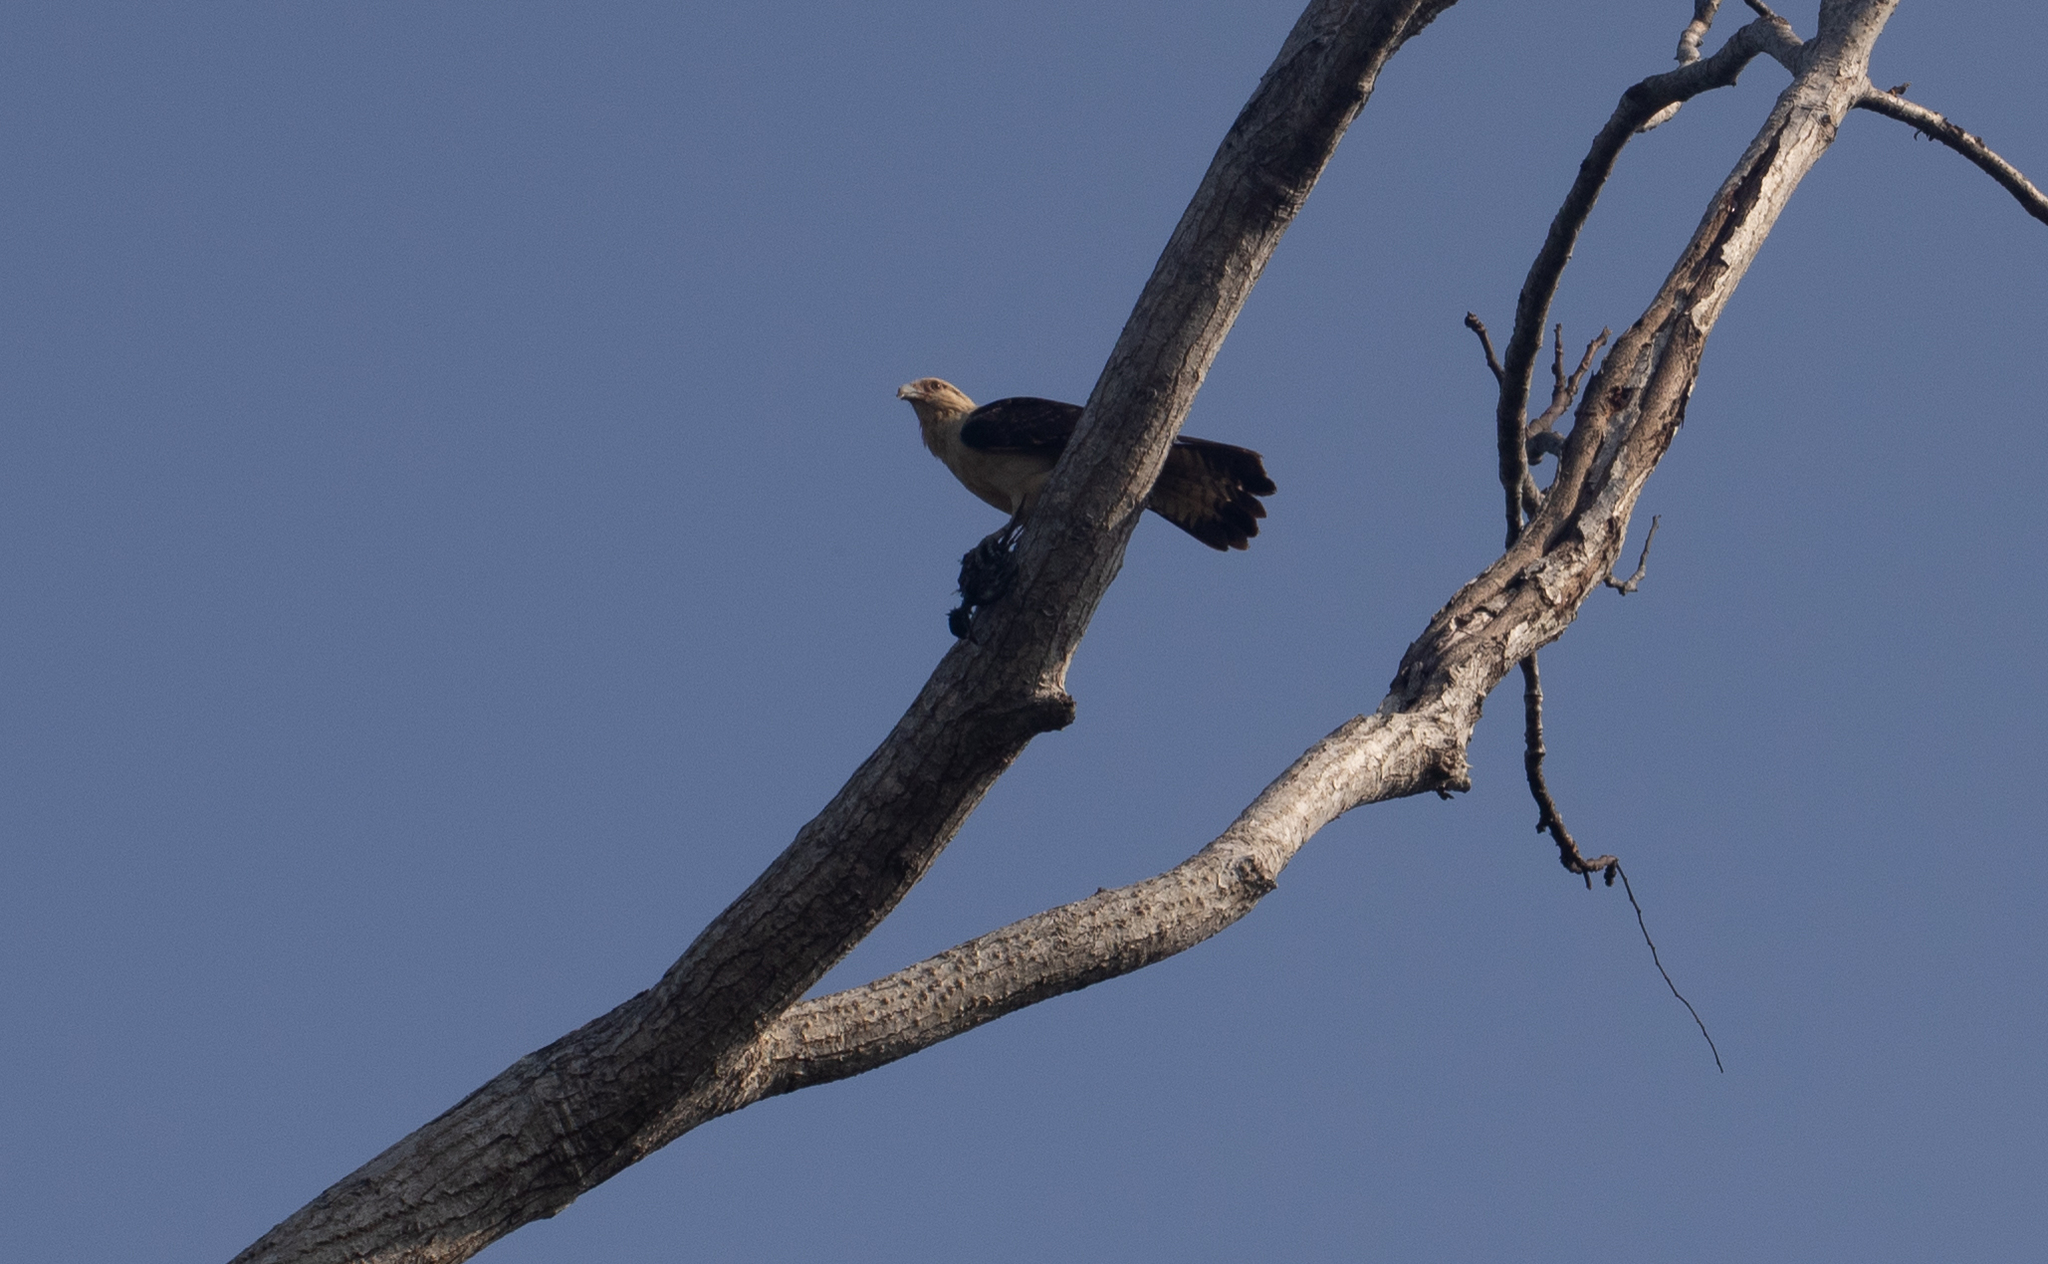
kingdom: Animalia
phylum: Chordata
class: Aves
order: Falconiformes
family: Falconidae
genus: Daptrius
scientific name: Daptrius
